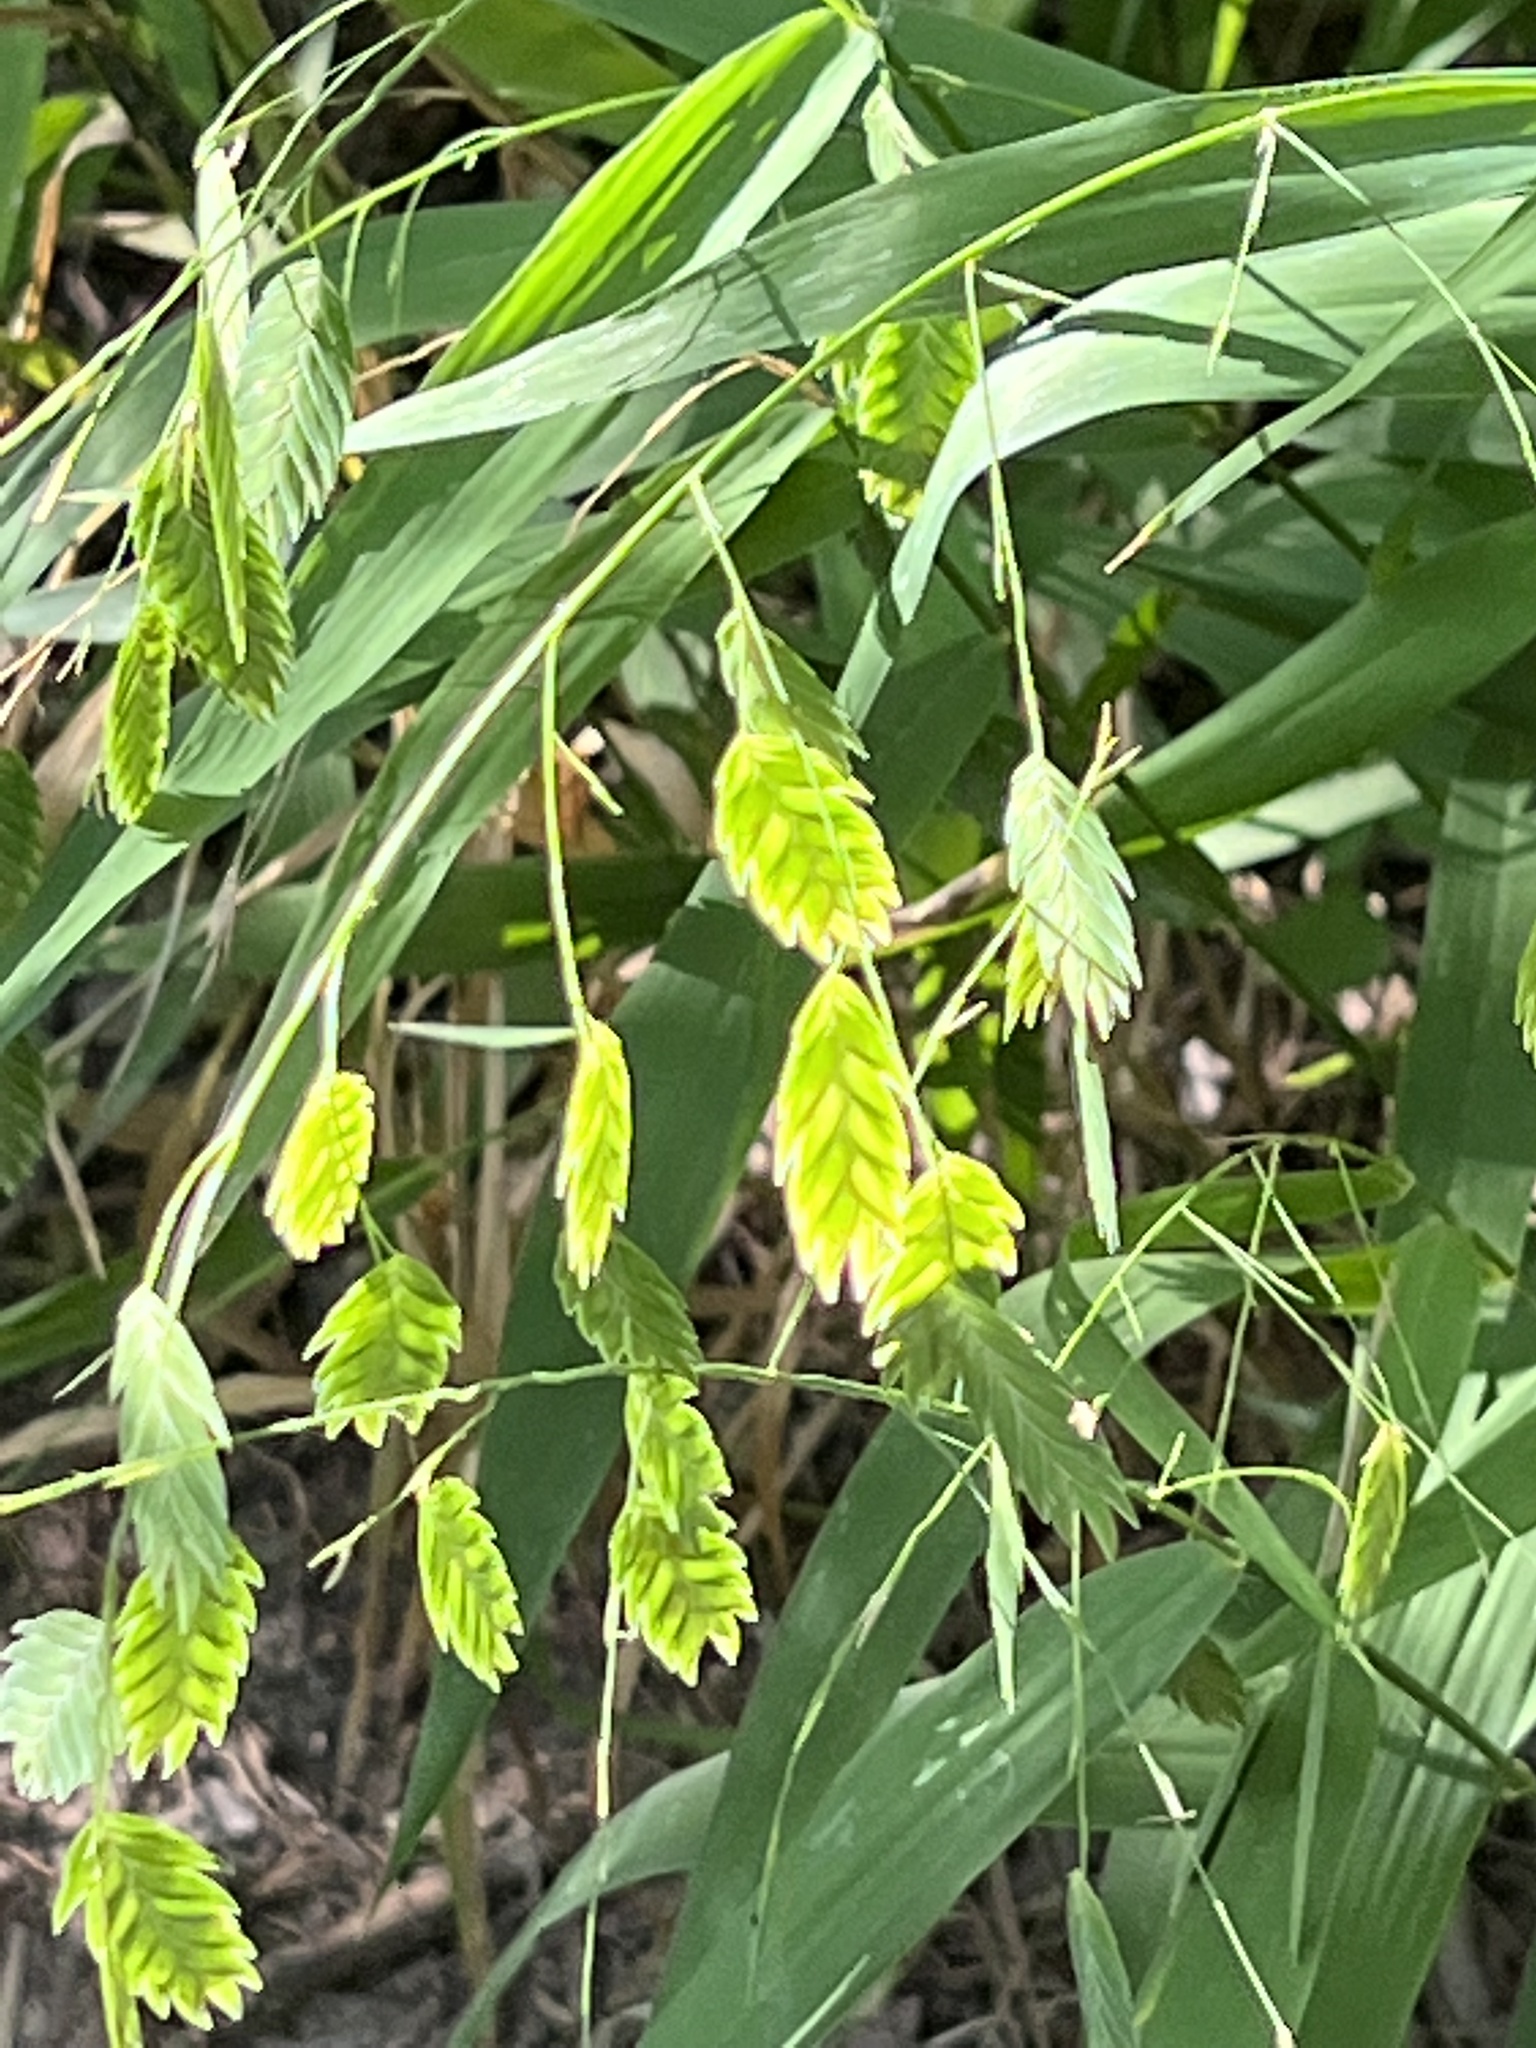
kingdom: Plantae
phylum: Tracheophyta
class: Liliopsida
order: Poales
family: Poaceae
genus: Chasmanthium
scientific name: Chasmanthium latifolium
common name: Broad-leaved chasmanthium
